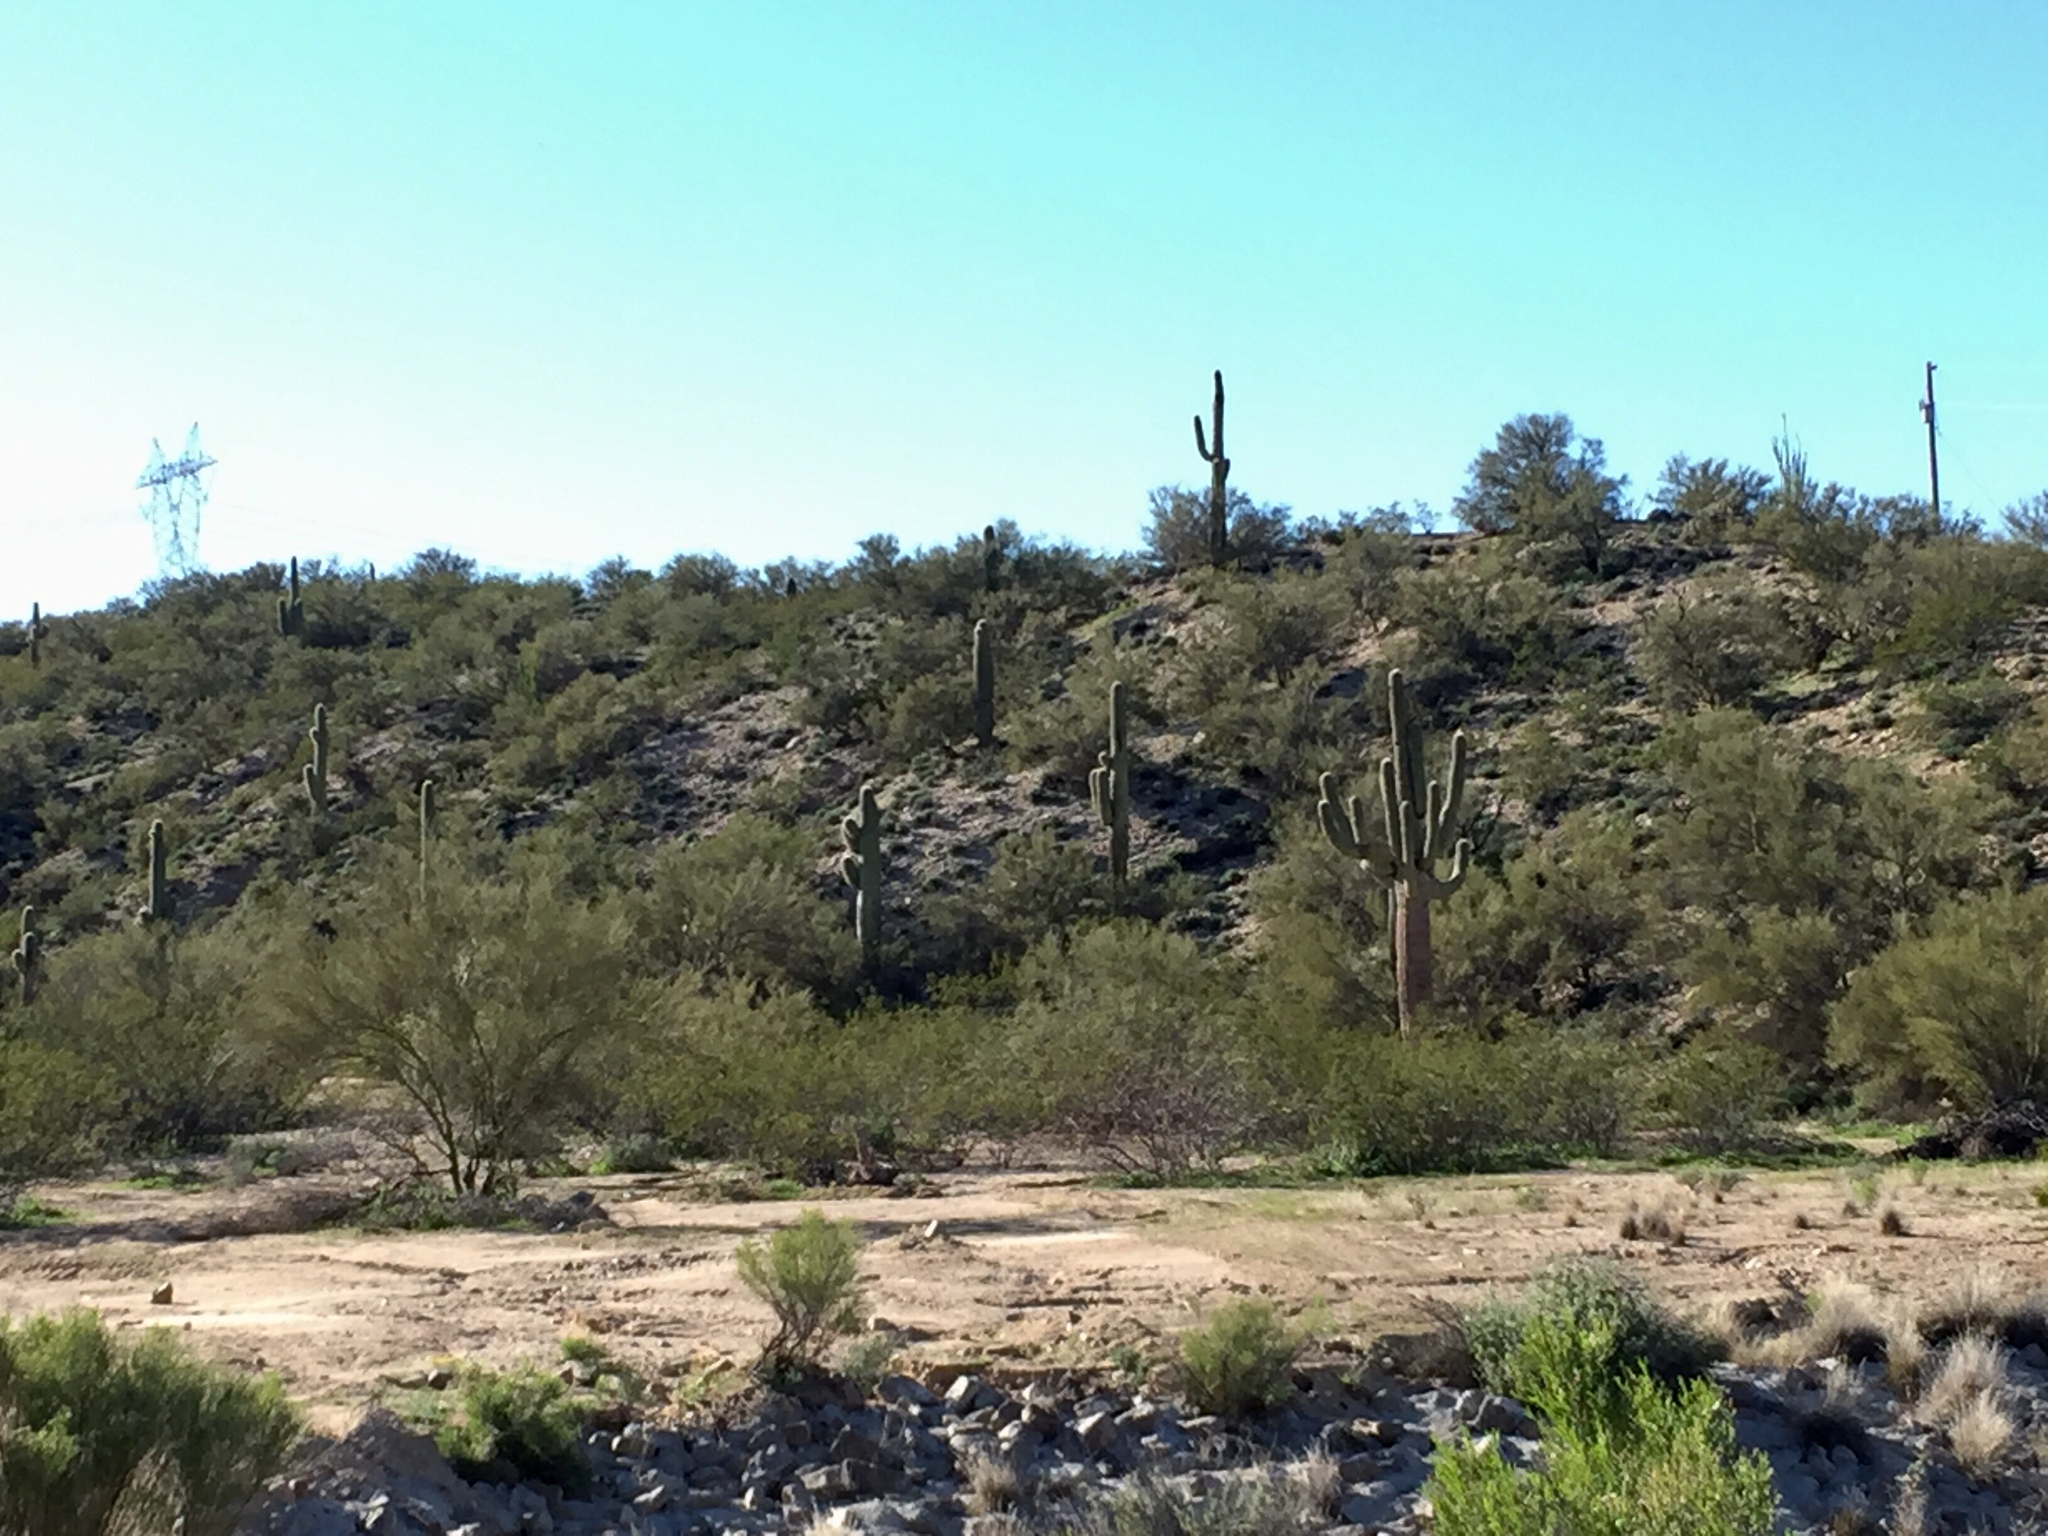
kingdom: Plantae
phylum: Tracheophyta
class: Magnoliopsida
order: Caryophyllales
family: Cactaceae
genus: Carnegiea
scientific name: Carnegiea gigantea
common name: Saguaro
